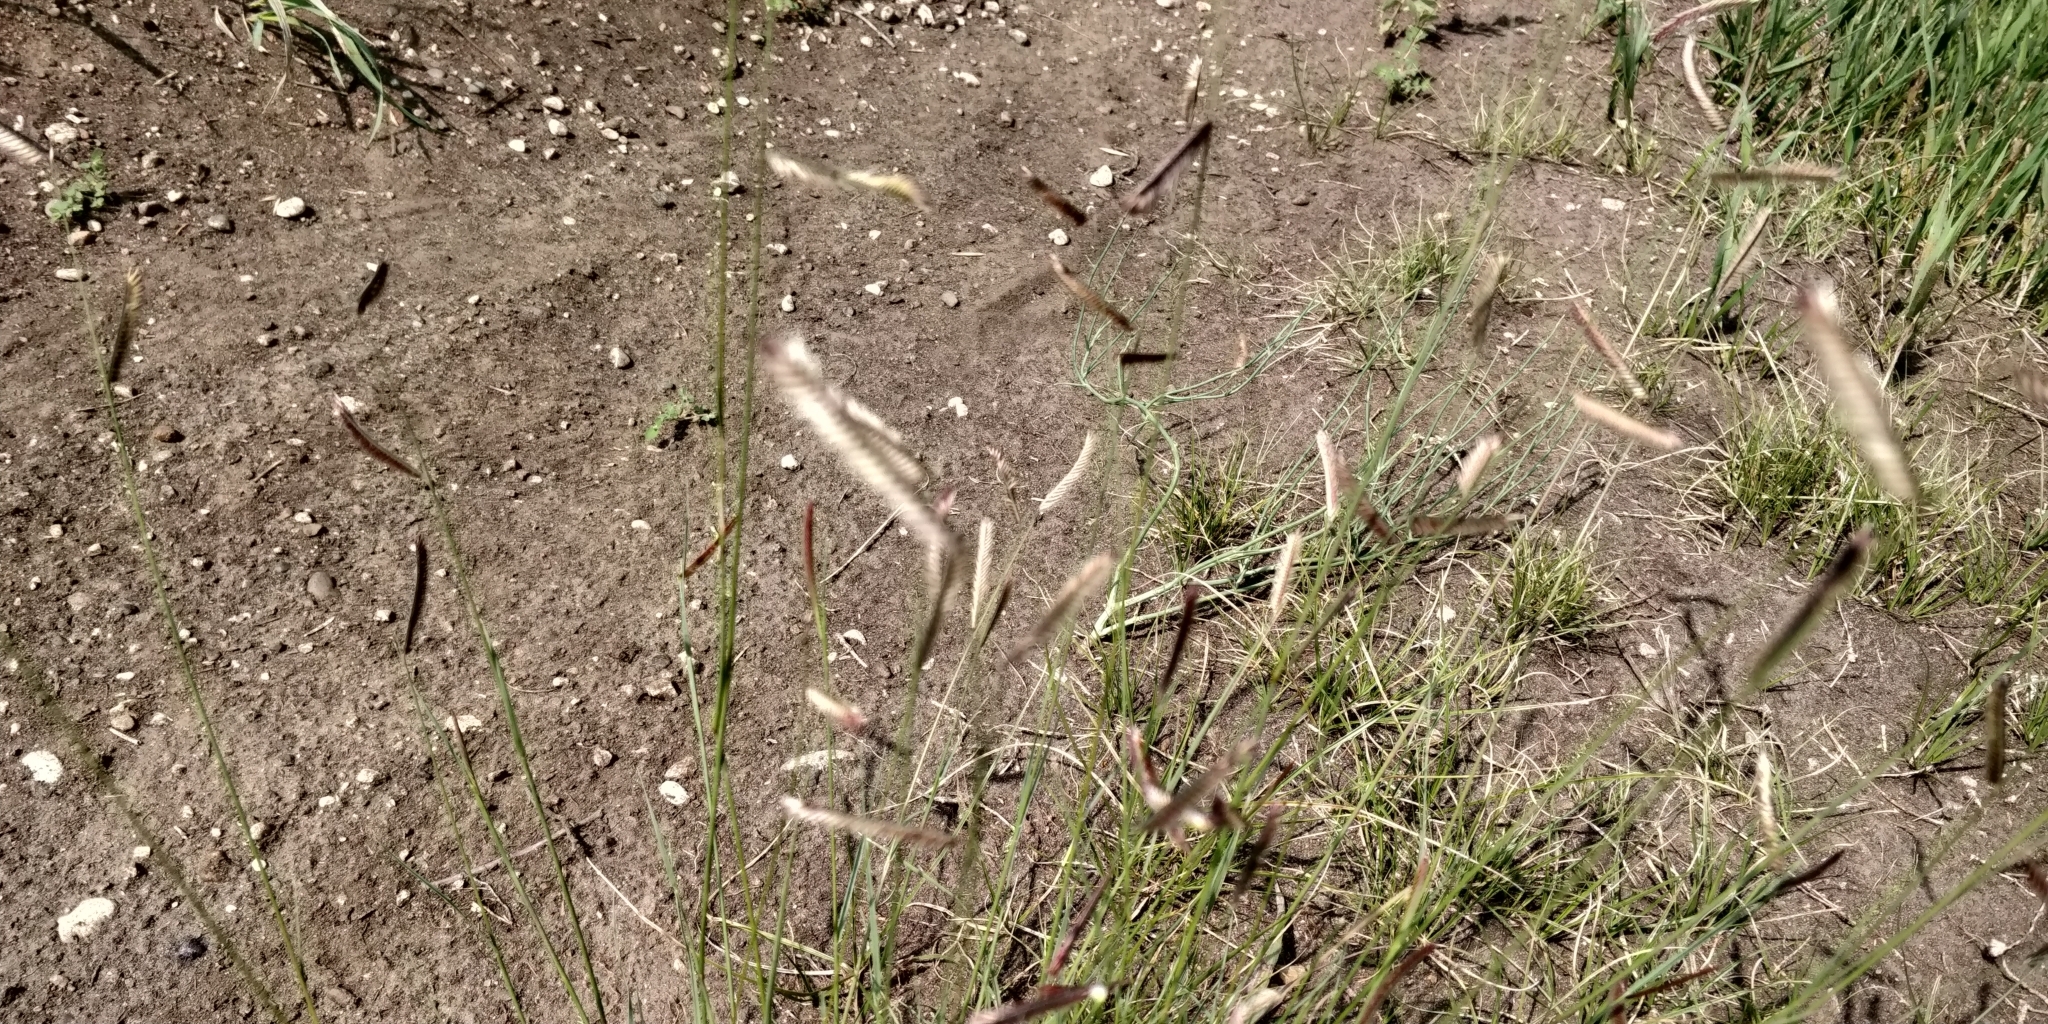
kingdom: Plantae
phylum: Tracheophyta
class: Liliopsida
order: Poales
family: Poaceae
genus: Bouteloua
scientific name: Bouteloua gracilis
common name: Blue grama
